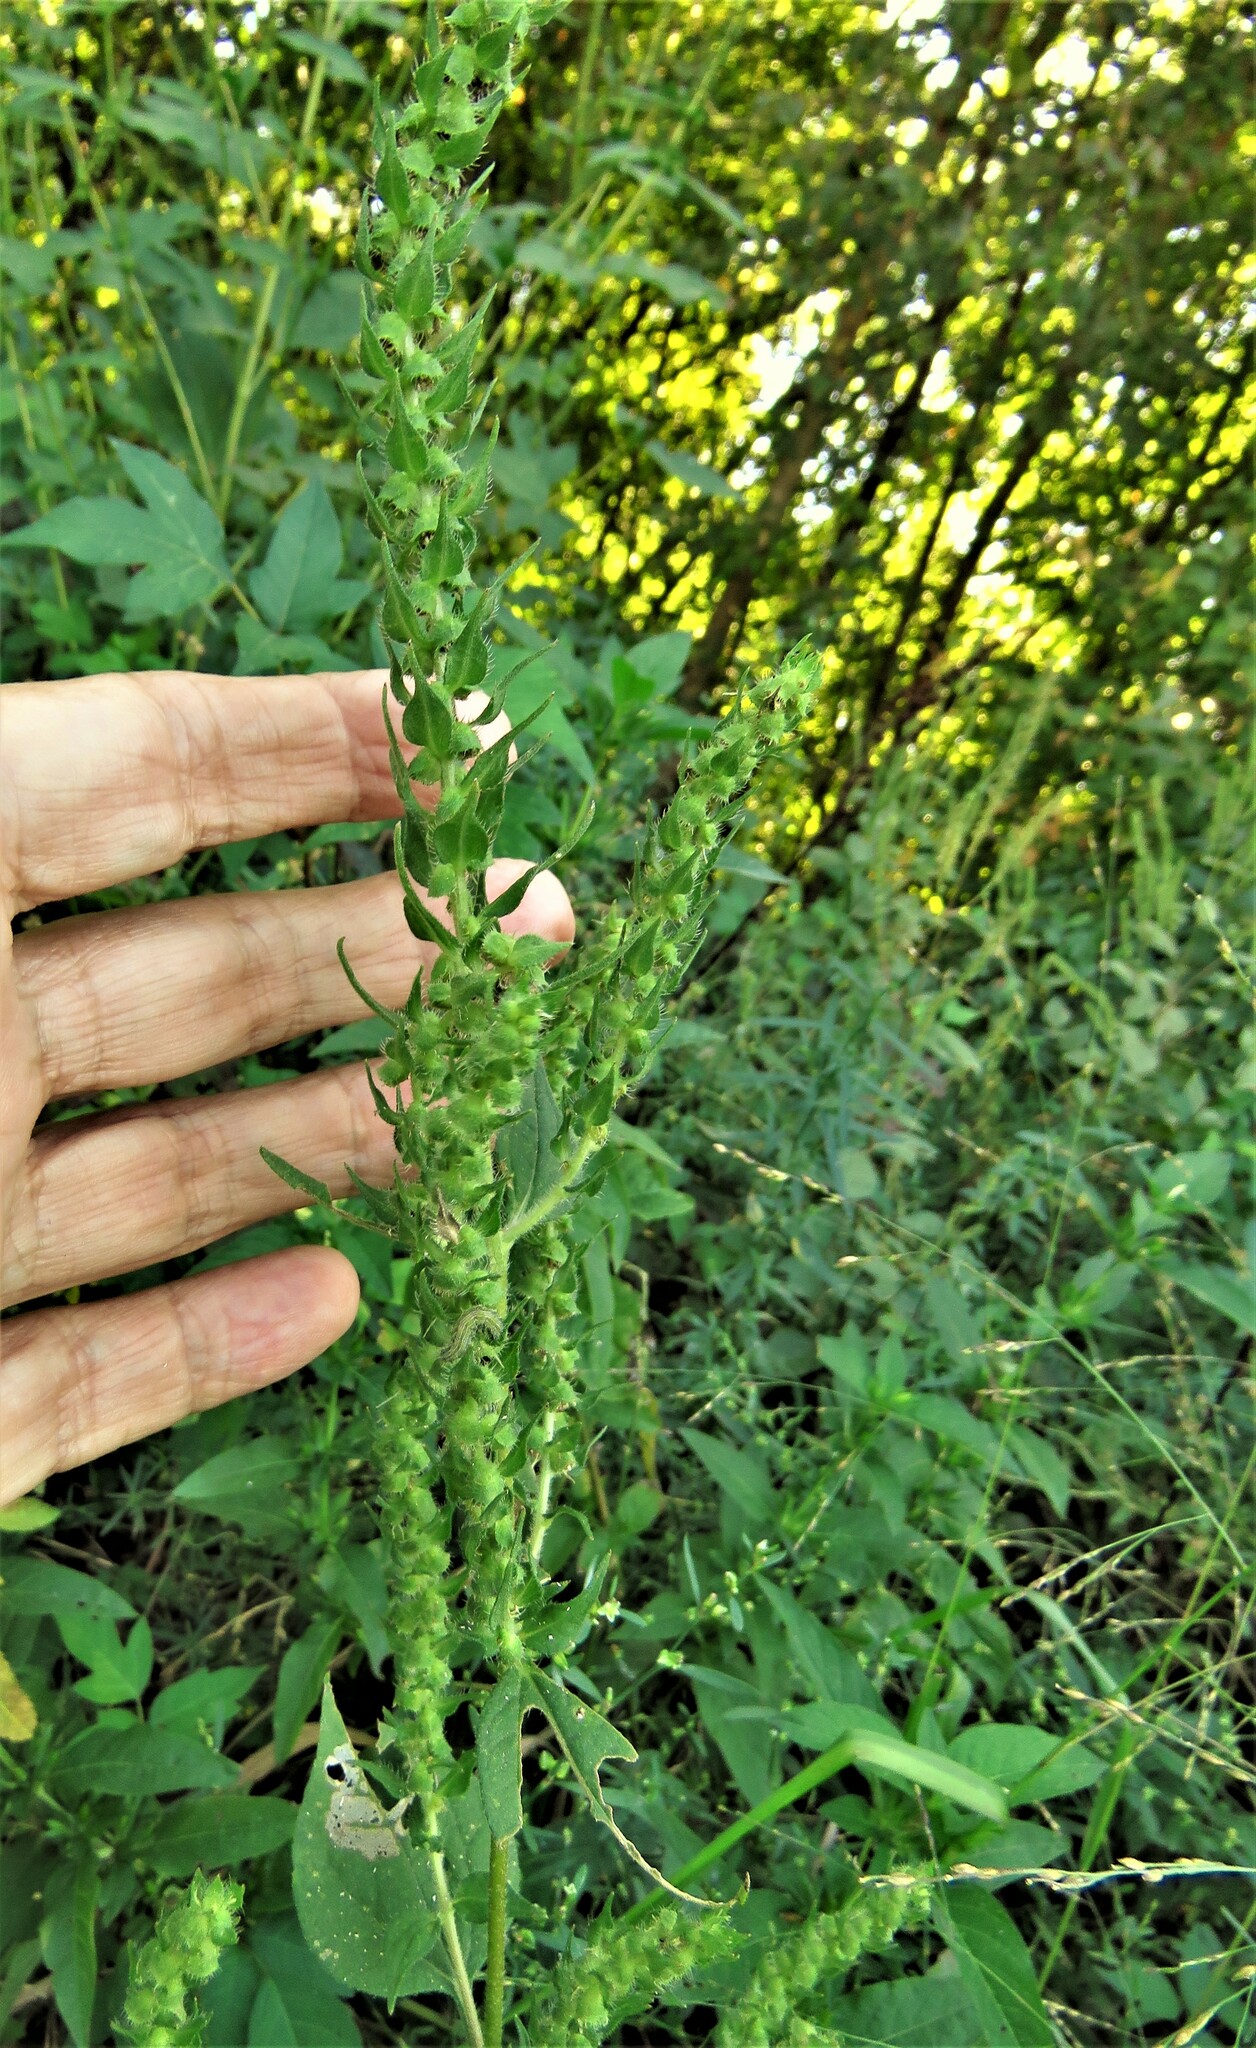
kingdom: Animalia
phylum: Arthropoda
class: Insecta
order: Lepidoptera
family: Noctuidae
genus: Schinia
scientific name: Schinia gracilenta
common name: Slender flower moth
